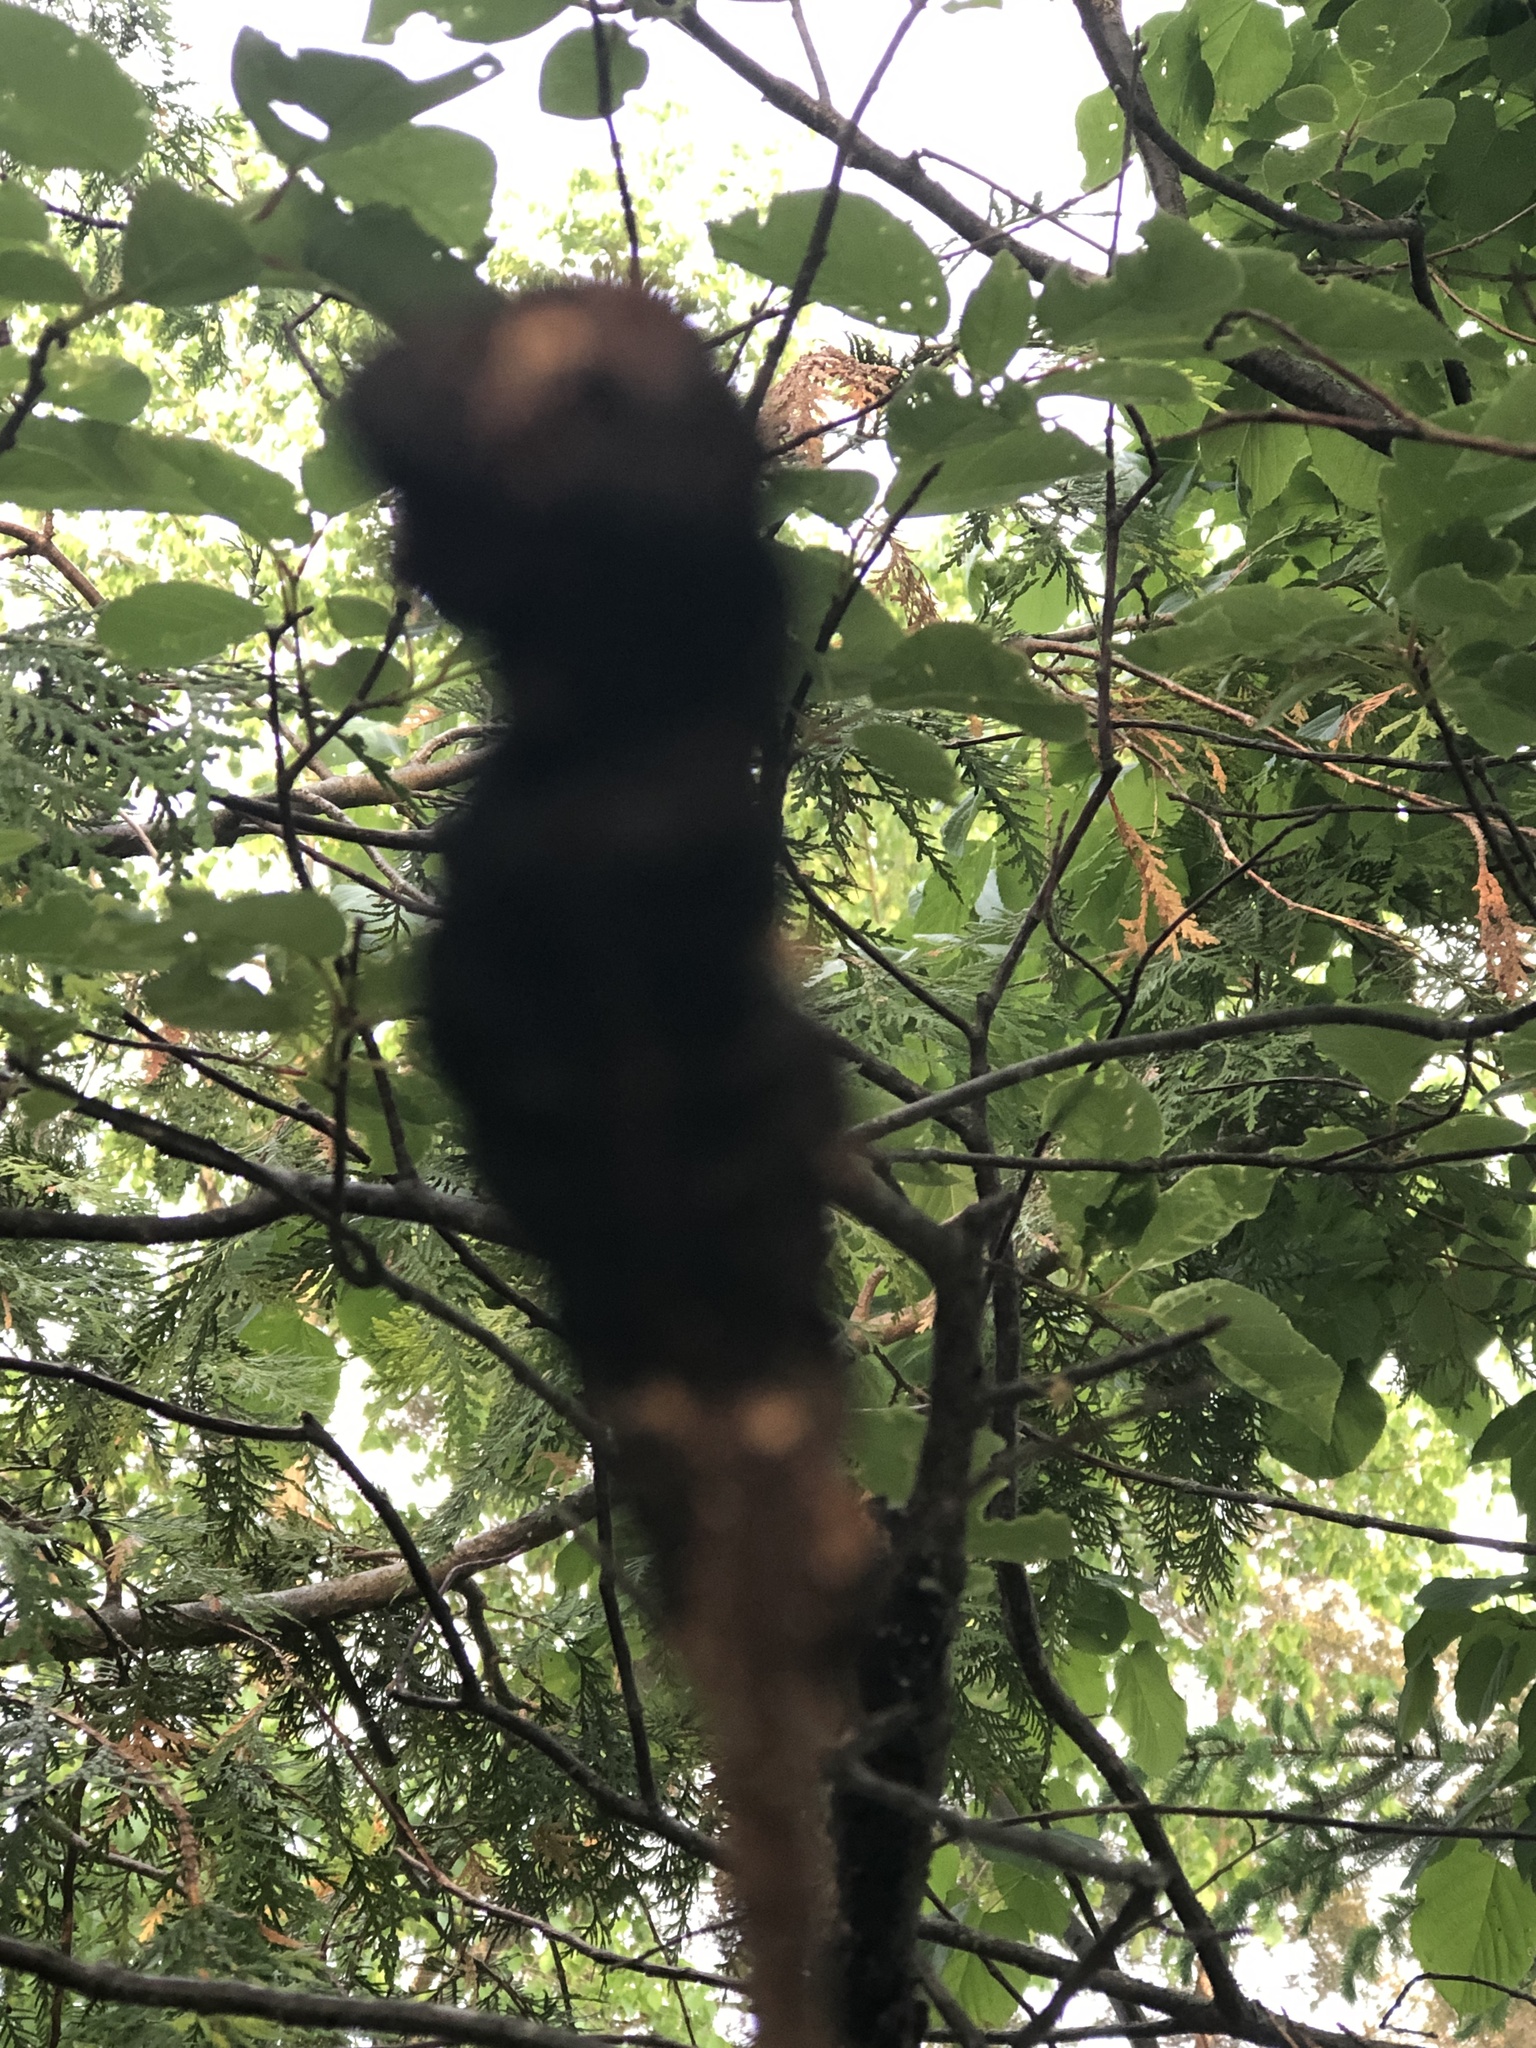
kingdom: Fungi
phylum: Ascomycota
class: Dothideomycetes
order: Venturiales
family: Venturiaceae
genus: Apiosporina
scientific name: Apiosporina morbosa
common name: Black knot
